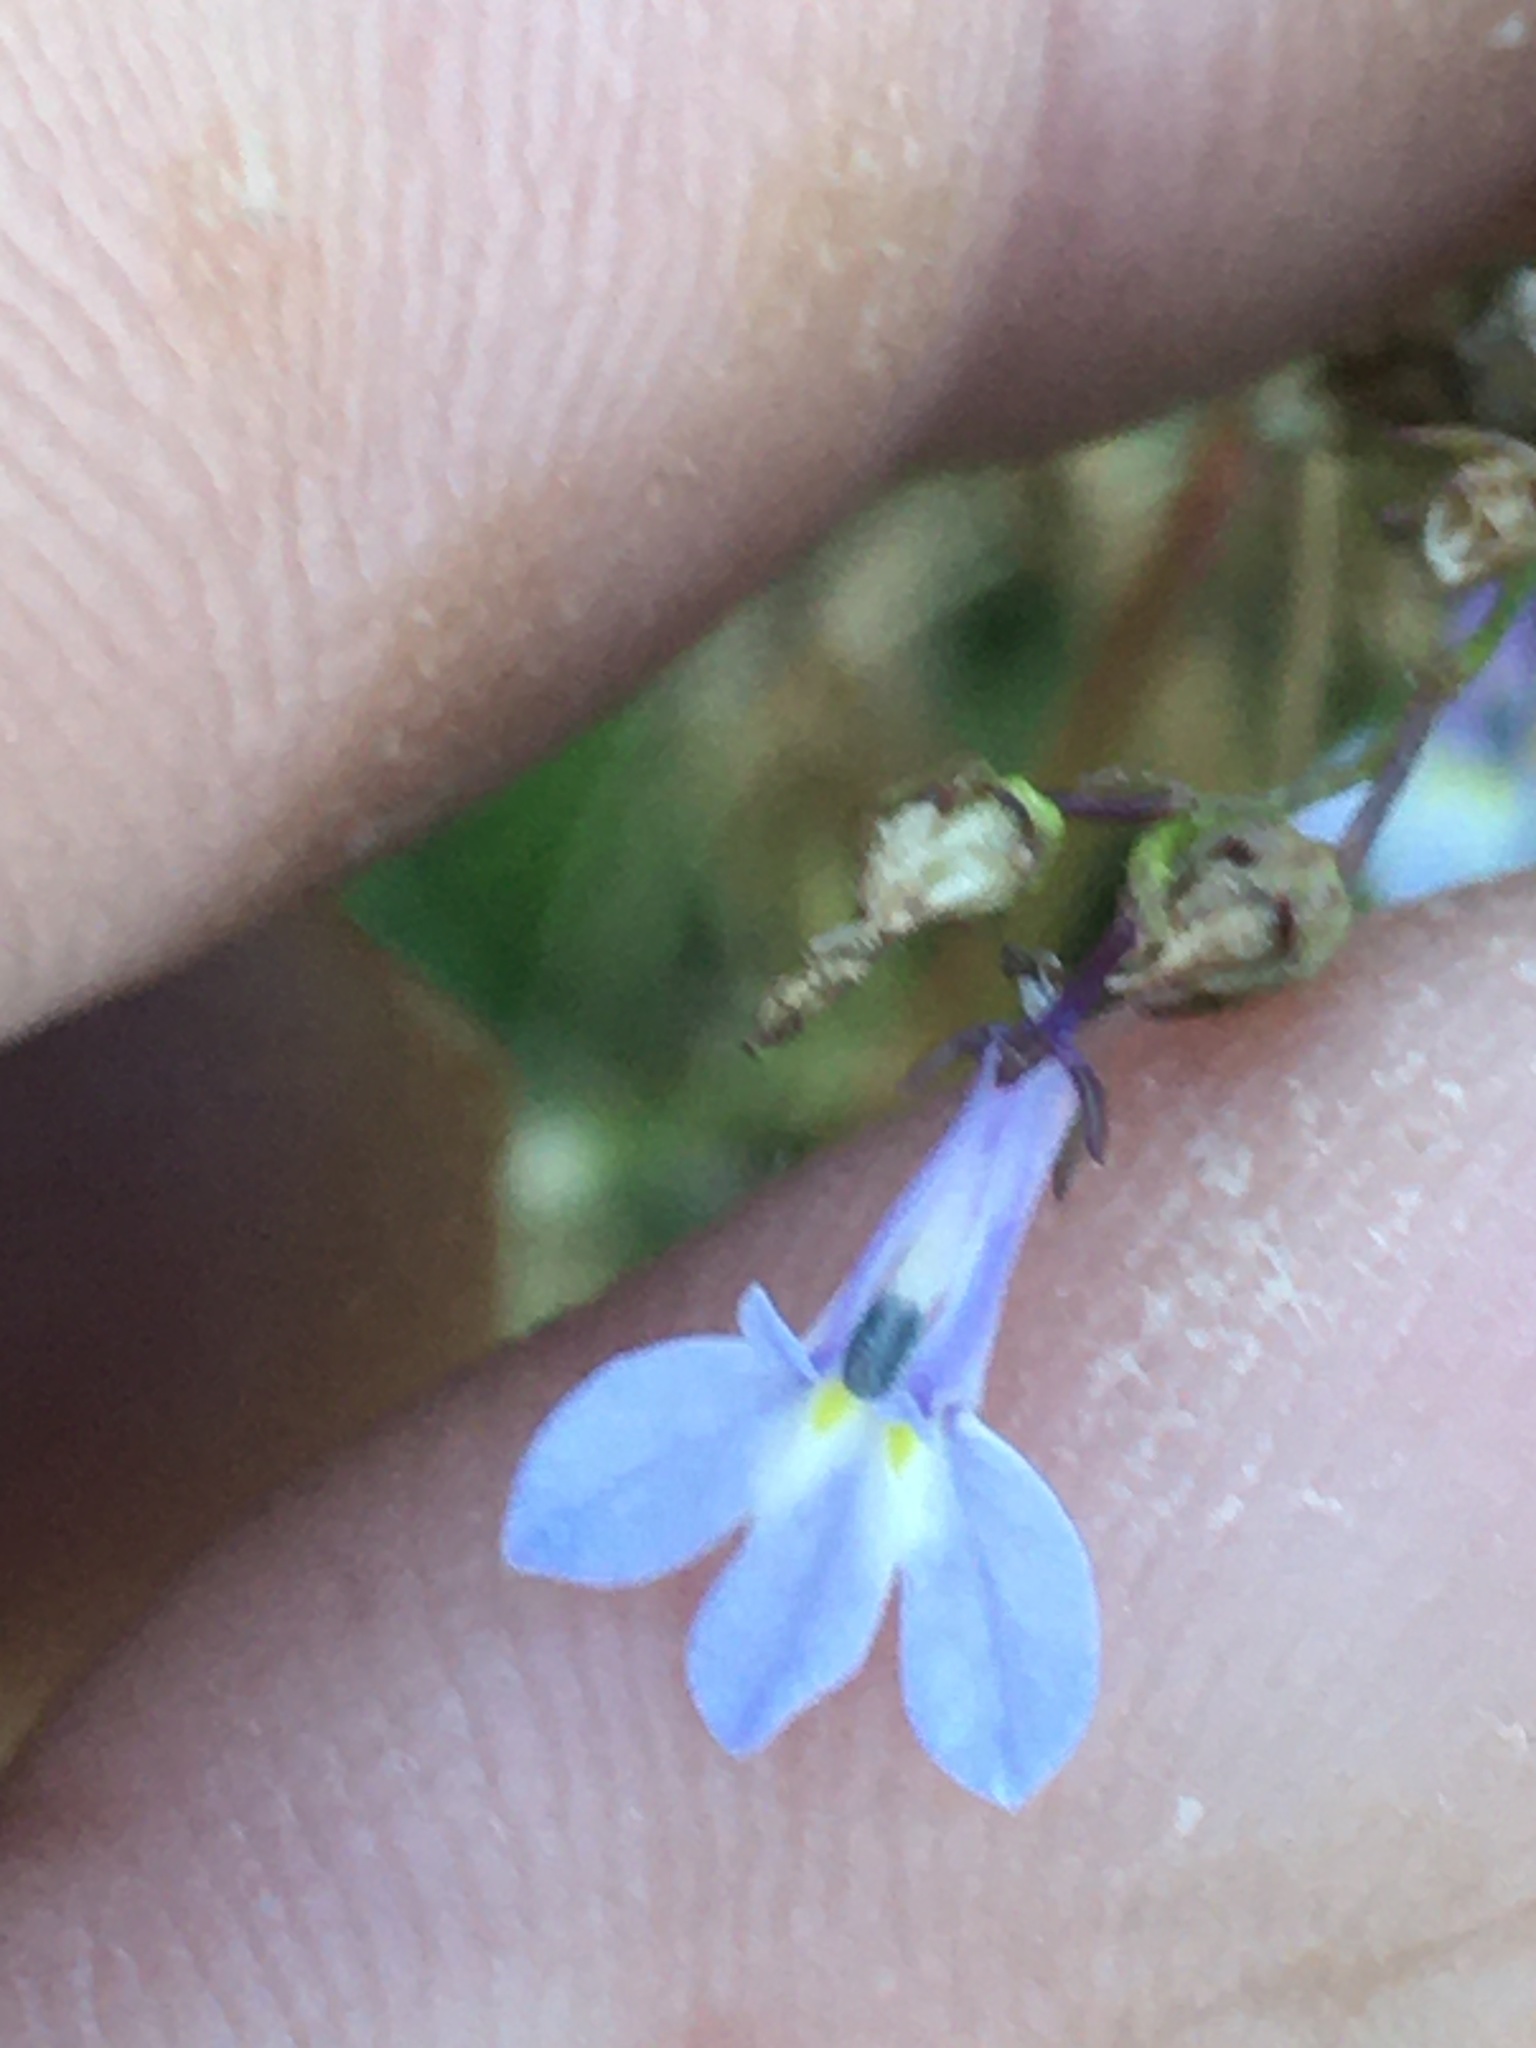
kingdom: Plantae
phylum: Tracheophyta
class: Magnoliopsida
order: Asterales
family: Campanulaceae
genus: Lobelia
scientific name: Lobelia nuttallii
